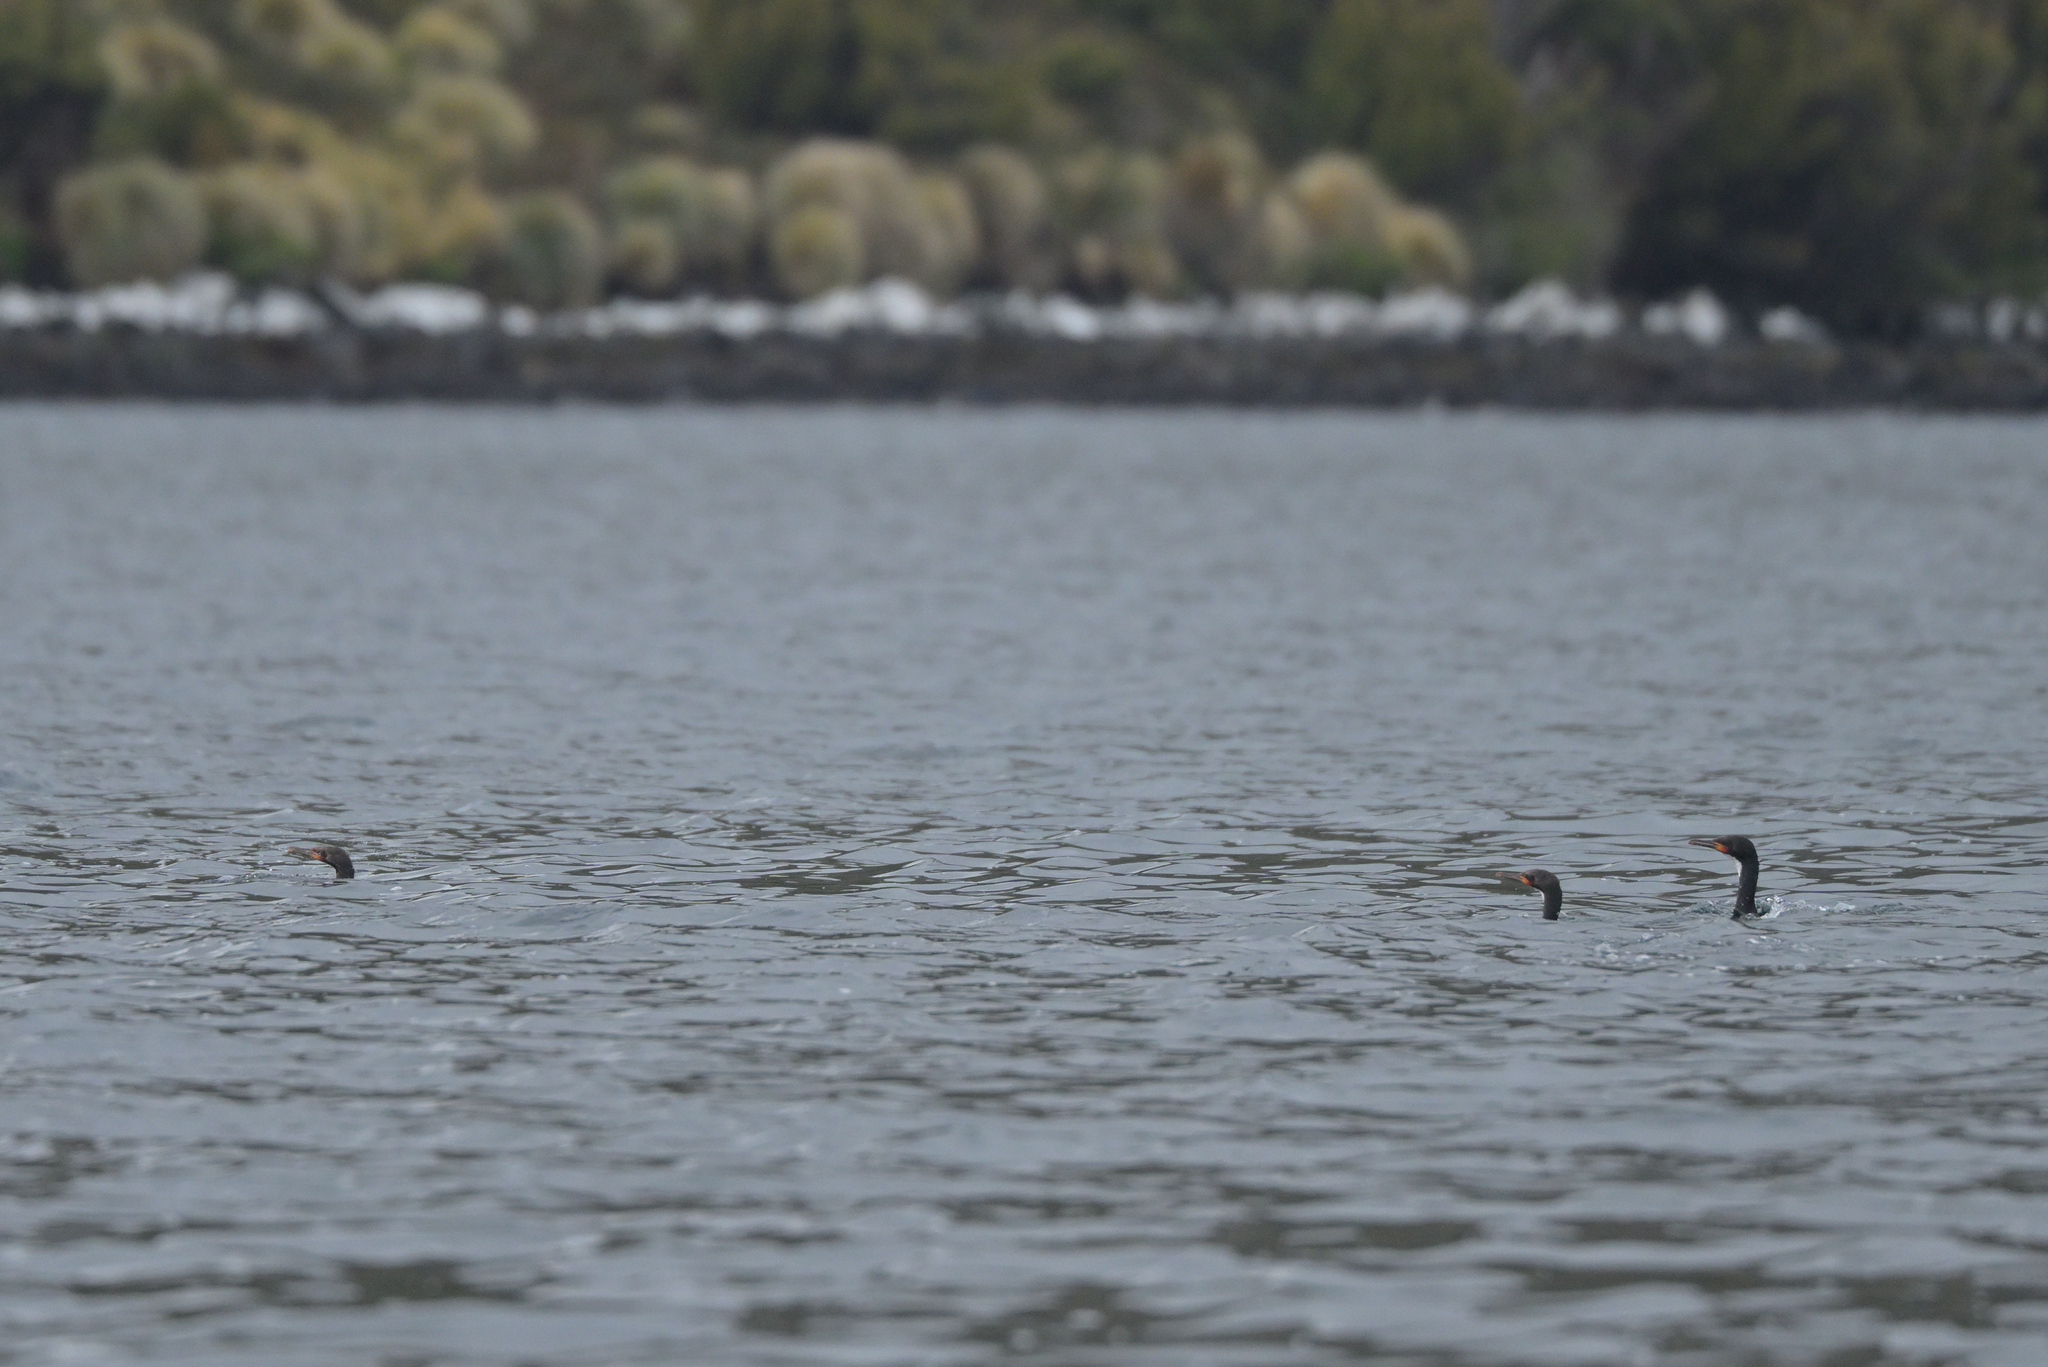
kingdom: Animalia
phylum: Chordata
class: Aves
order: Suliformes
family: Phalacrocoracidae
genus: Leucocarbo
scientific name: Leucocarbo campbelli
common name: Campbell shag
